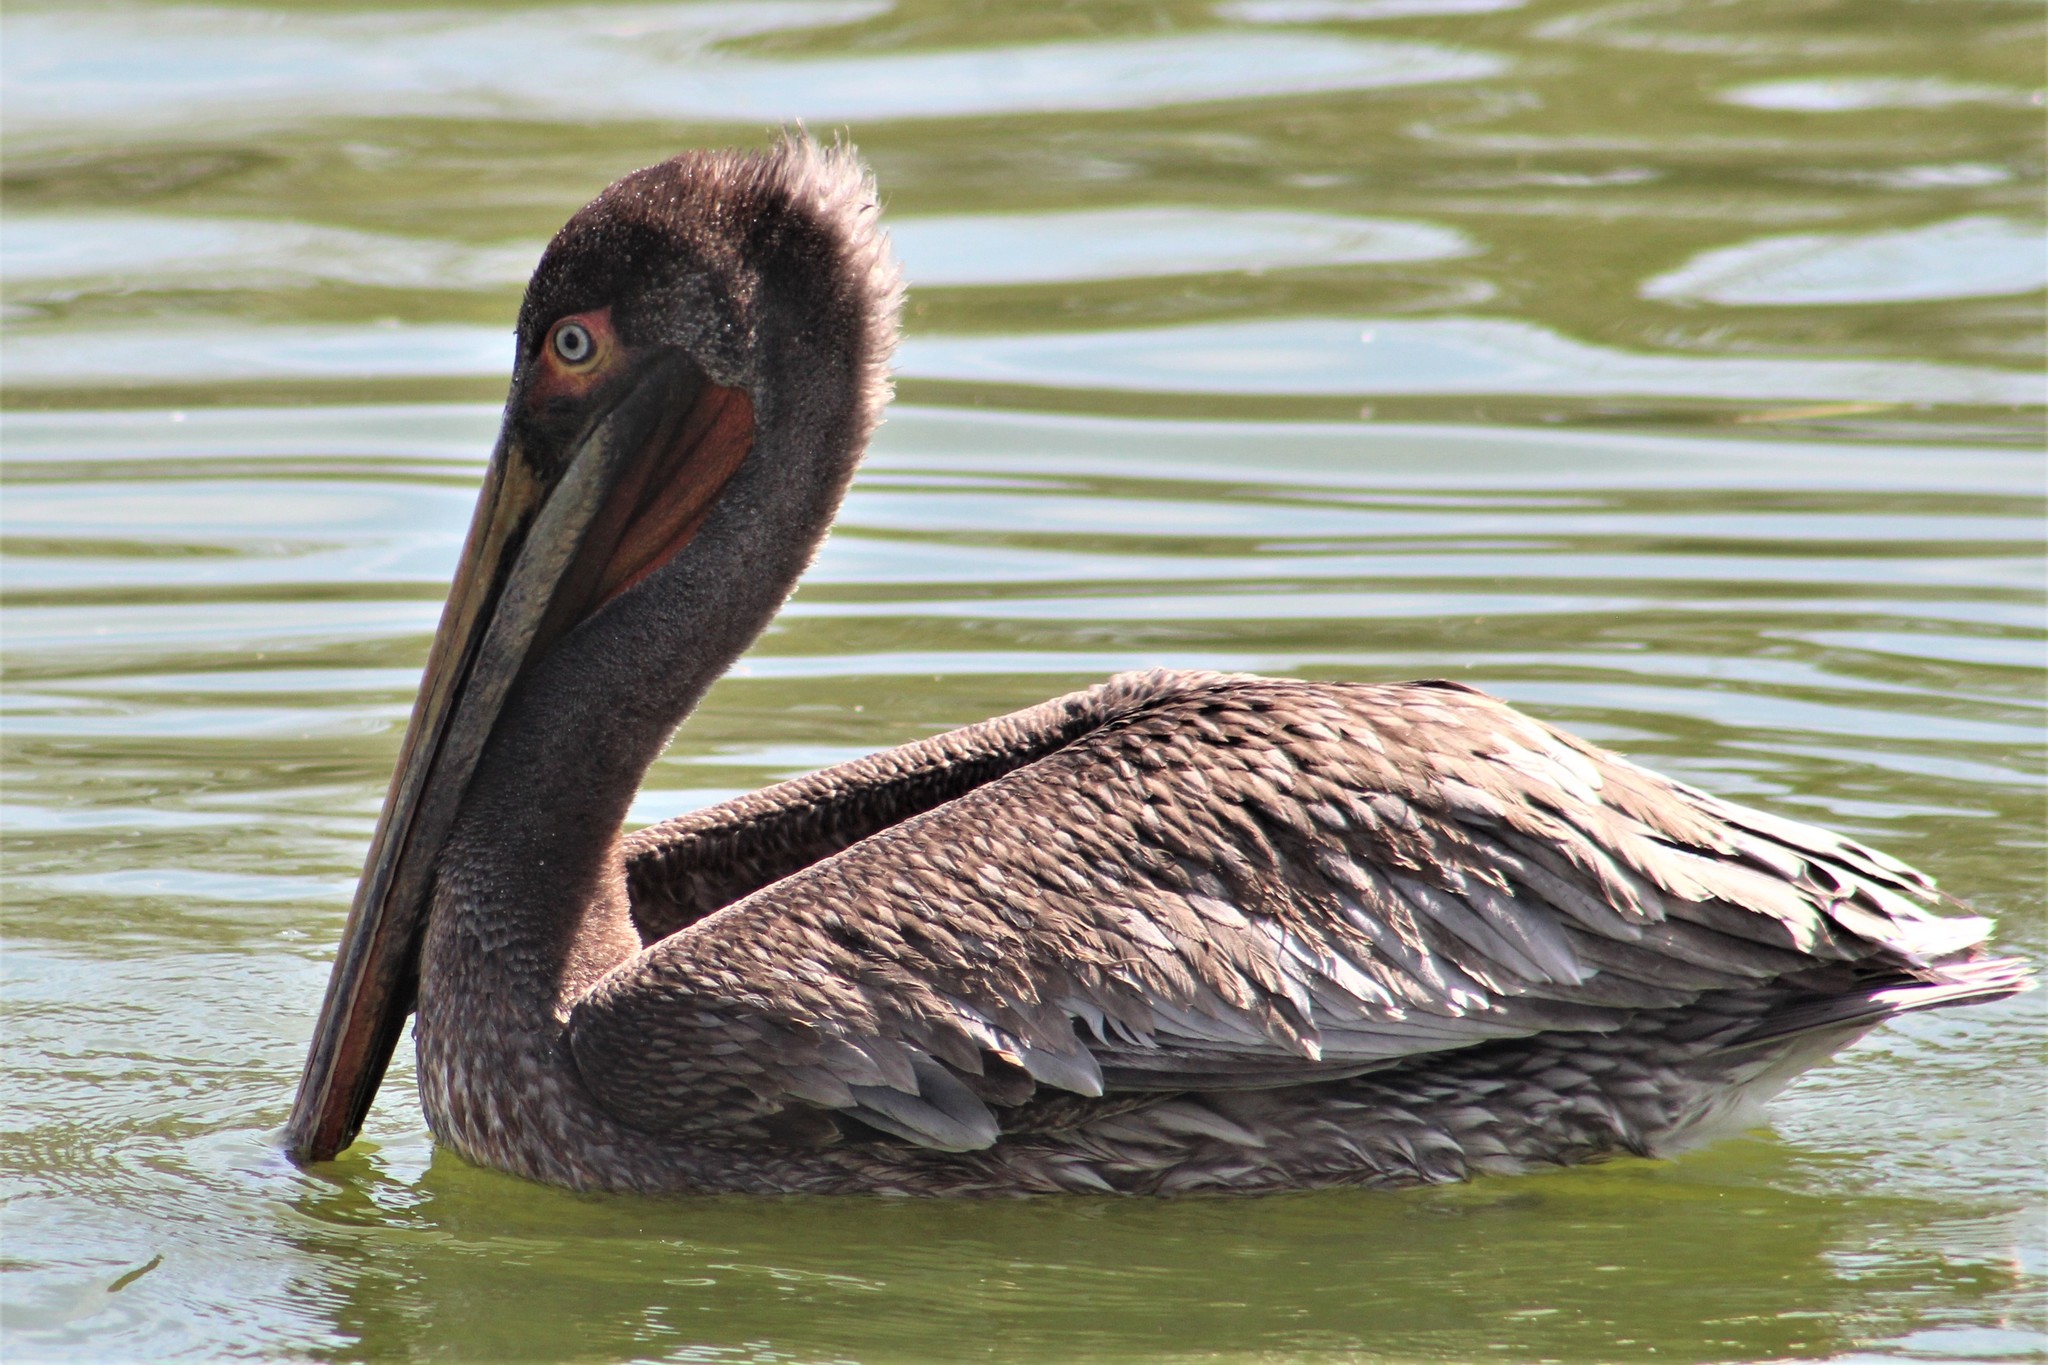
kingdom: Animalia
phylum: Chordata
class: Aves
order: Pelecaniformes
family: Pelecanidae
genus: Pelecanus
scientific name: Pelecanus occidentalis
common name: Brown pelican
